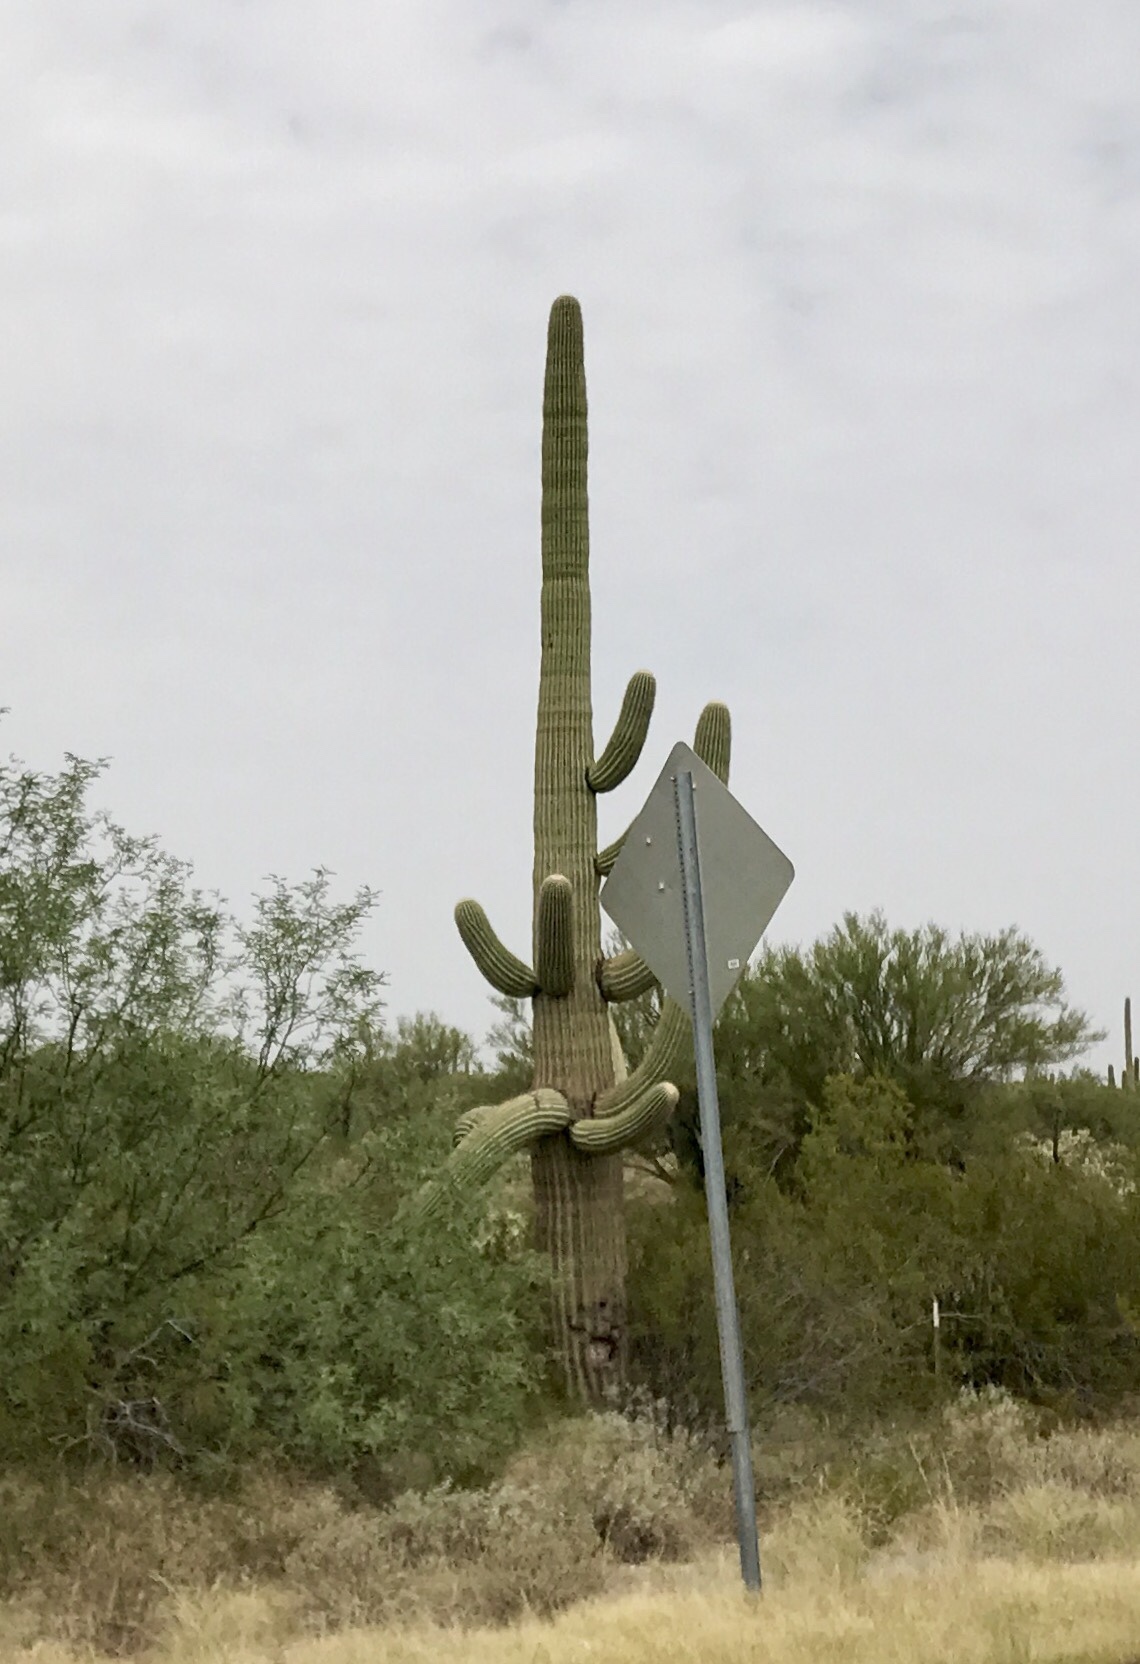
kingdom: Plantae
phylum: Tracheophyta
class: Magnoliopsida
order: Caryophyllales
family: Cactaceae
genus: Carnegiea
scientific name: Carnegiea gigantea
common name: Saguaro
